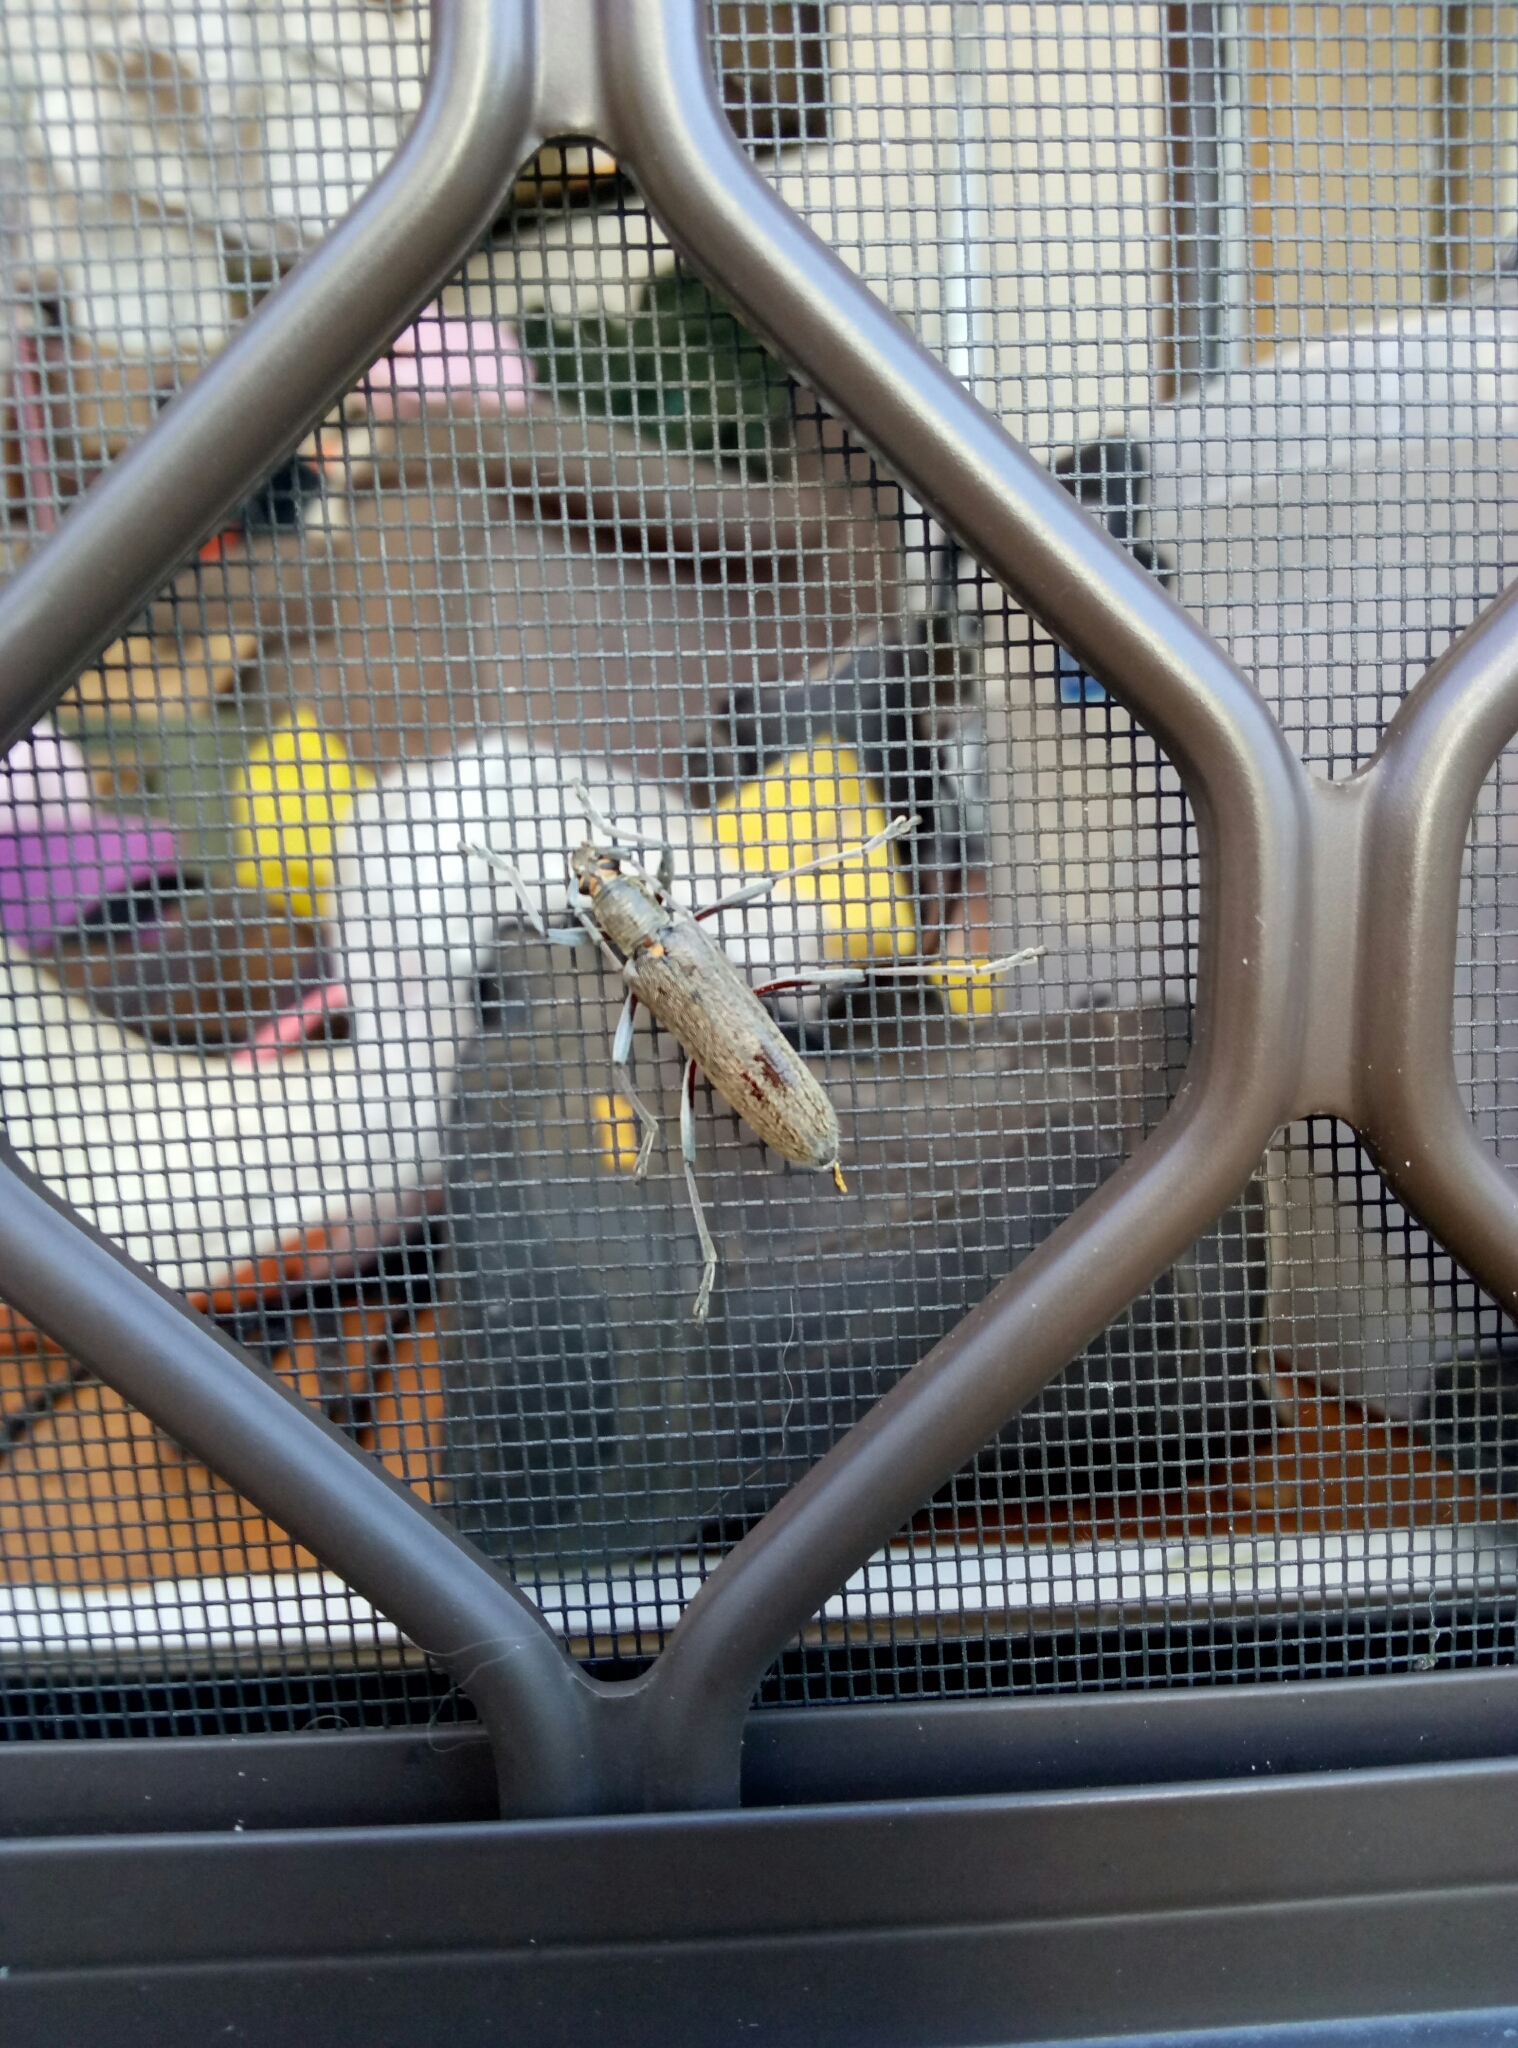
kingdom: Animalia
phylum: Arthropoda
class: Insecta
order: Coleoptera
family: Cerambycidae
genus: Oemona
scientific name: Oemona hirta
